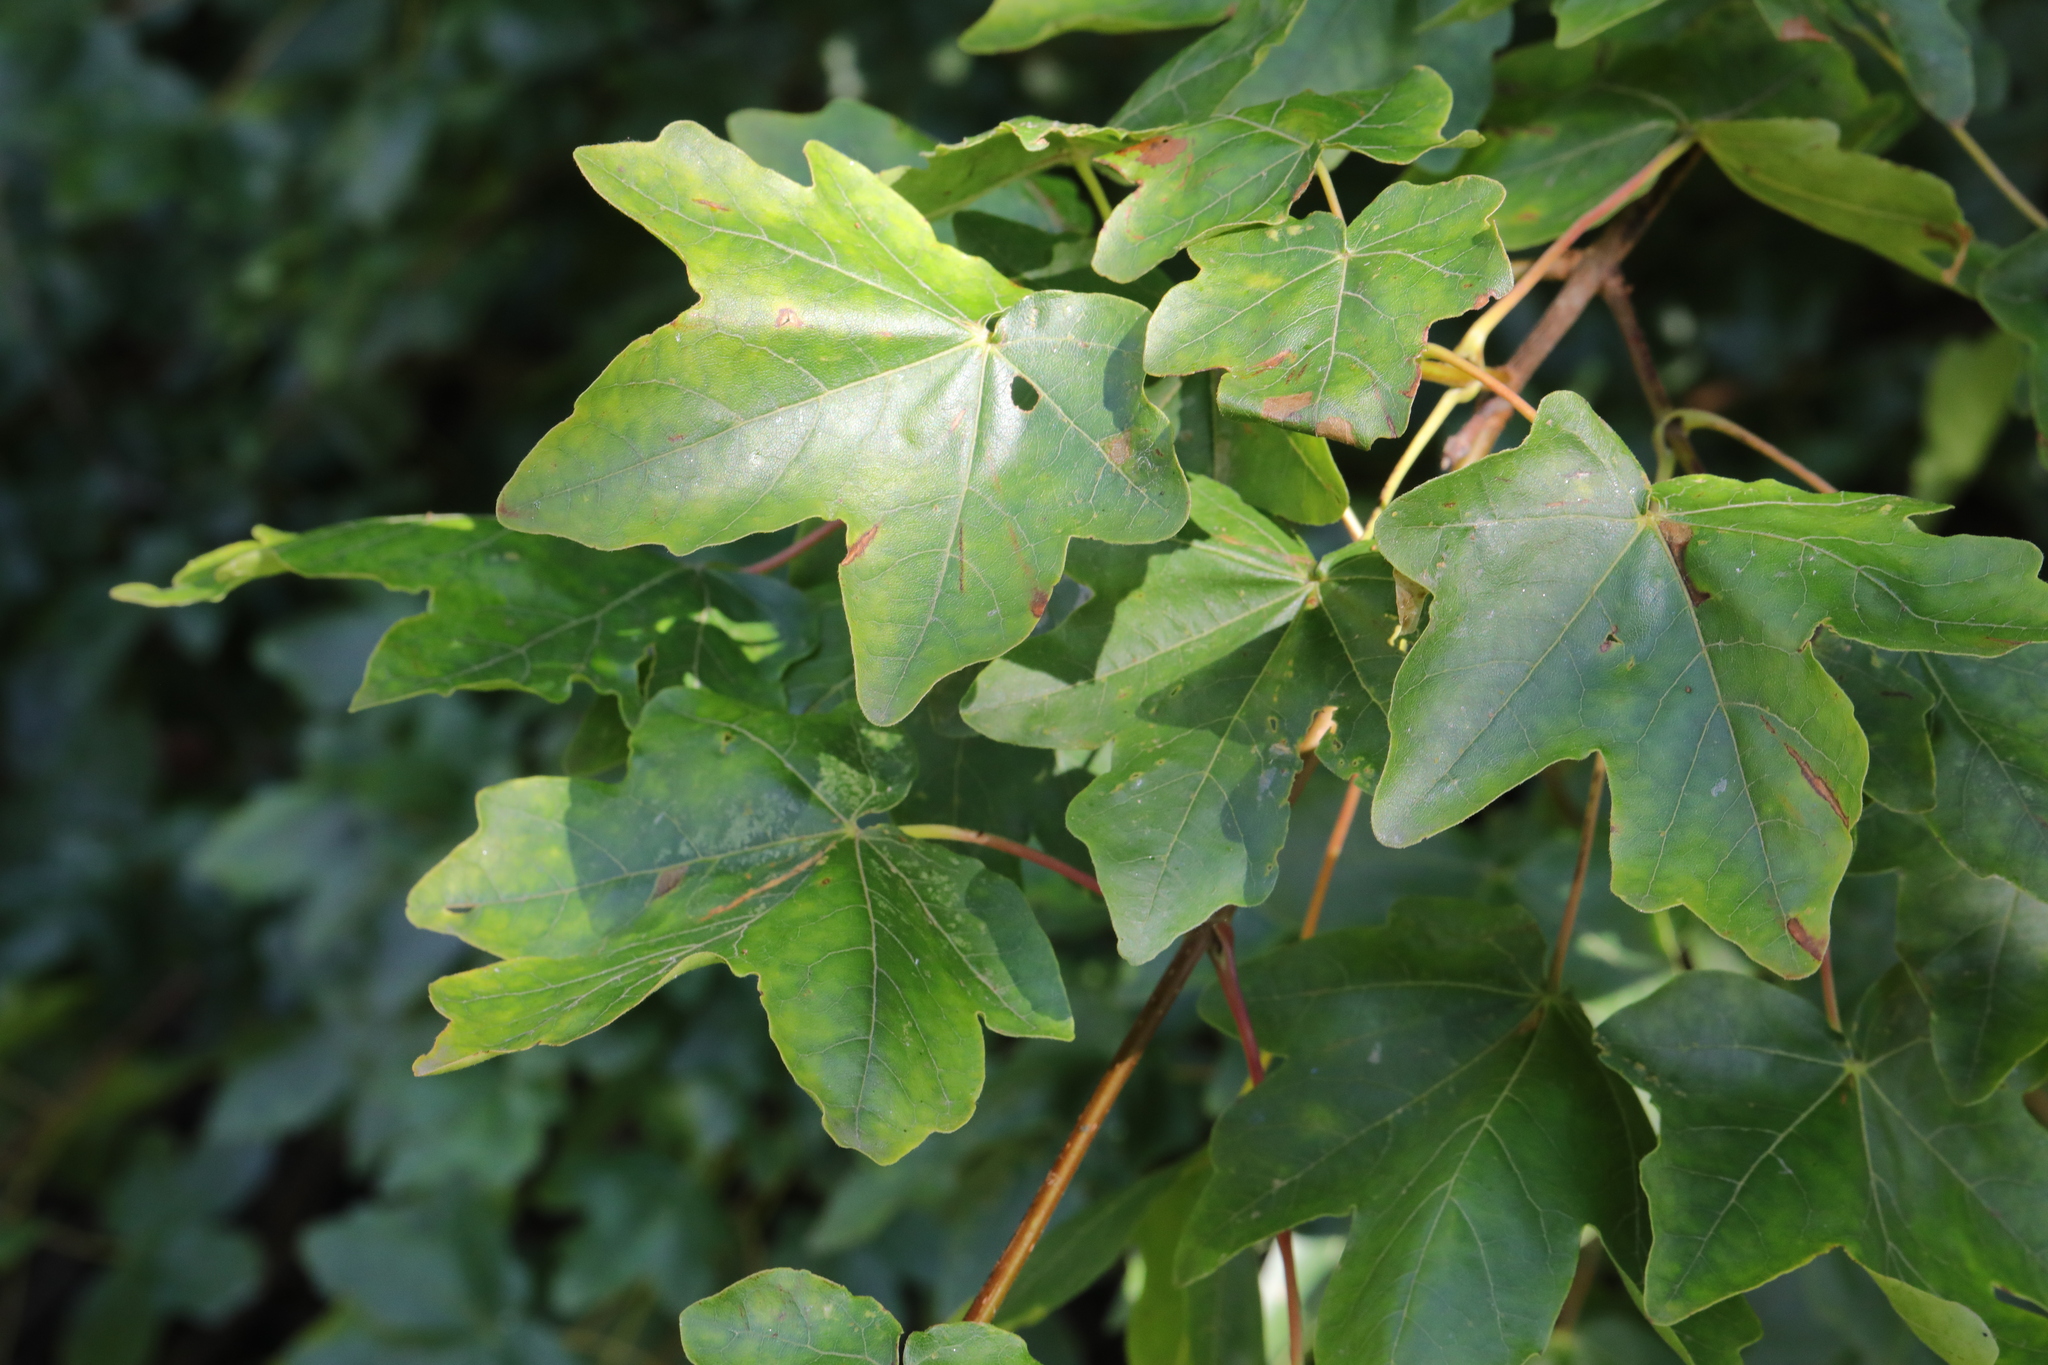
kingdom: Plantae
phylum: Tracheophyta
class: Magnoliopsida
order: Sapindales
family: Sapindaceae
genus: Acer
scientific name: Acer campestre
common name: Field maple
